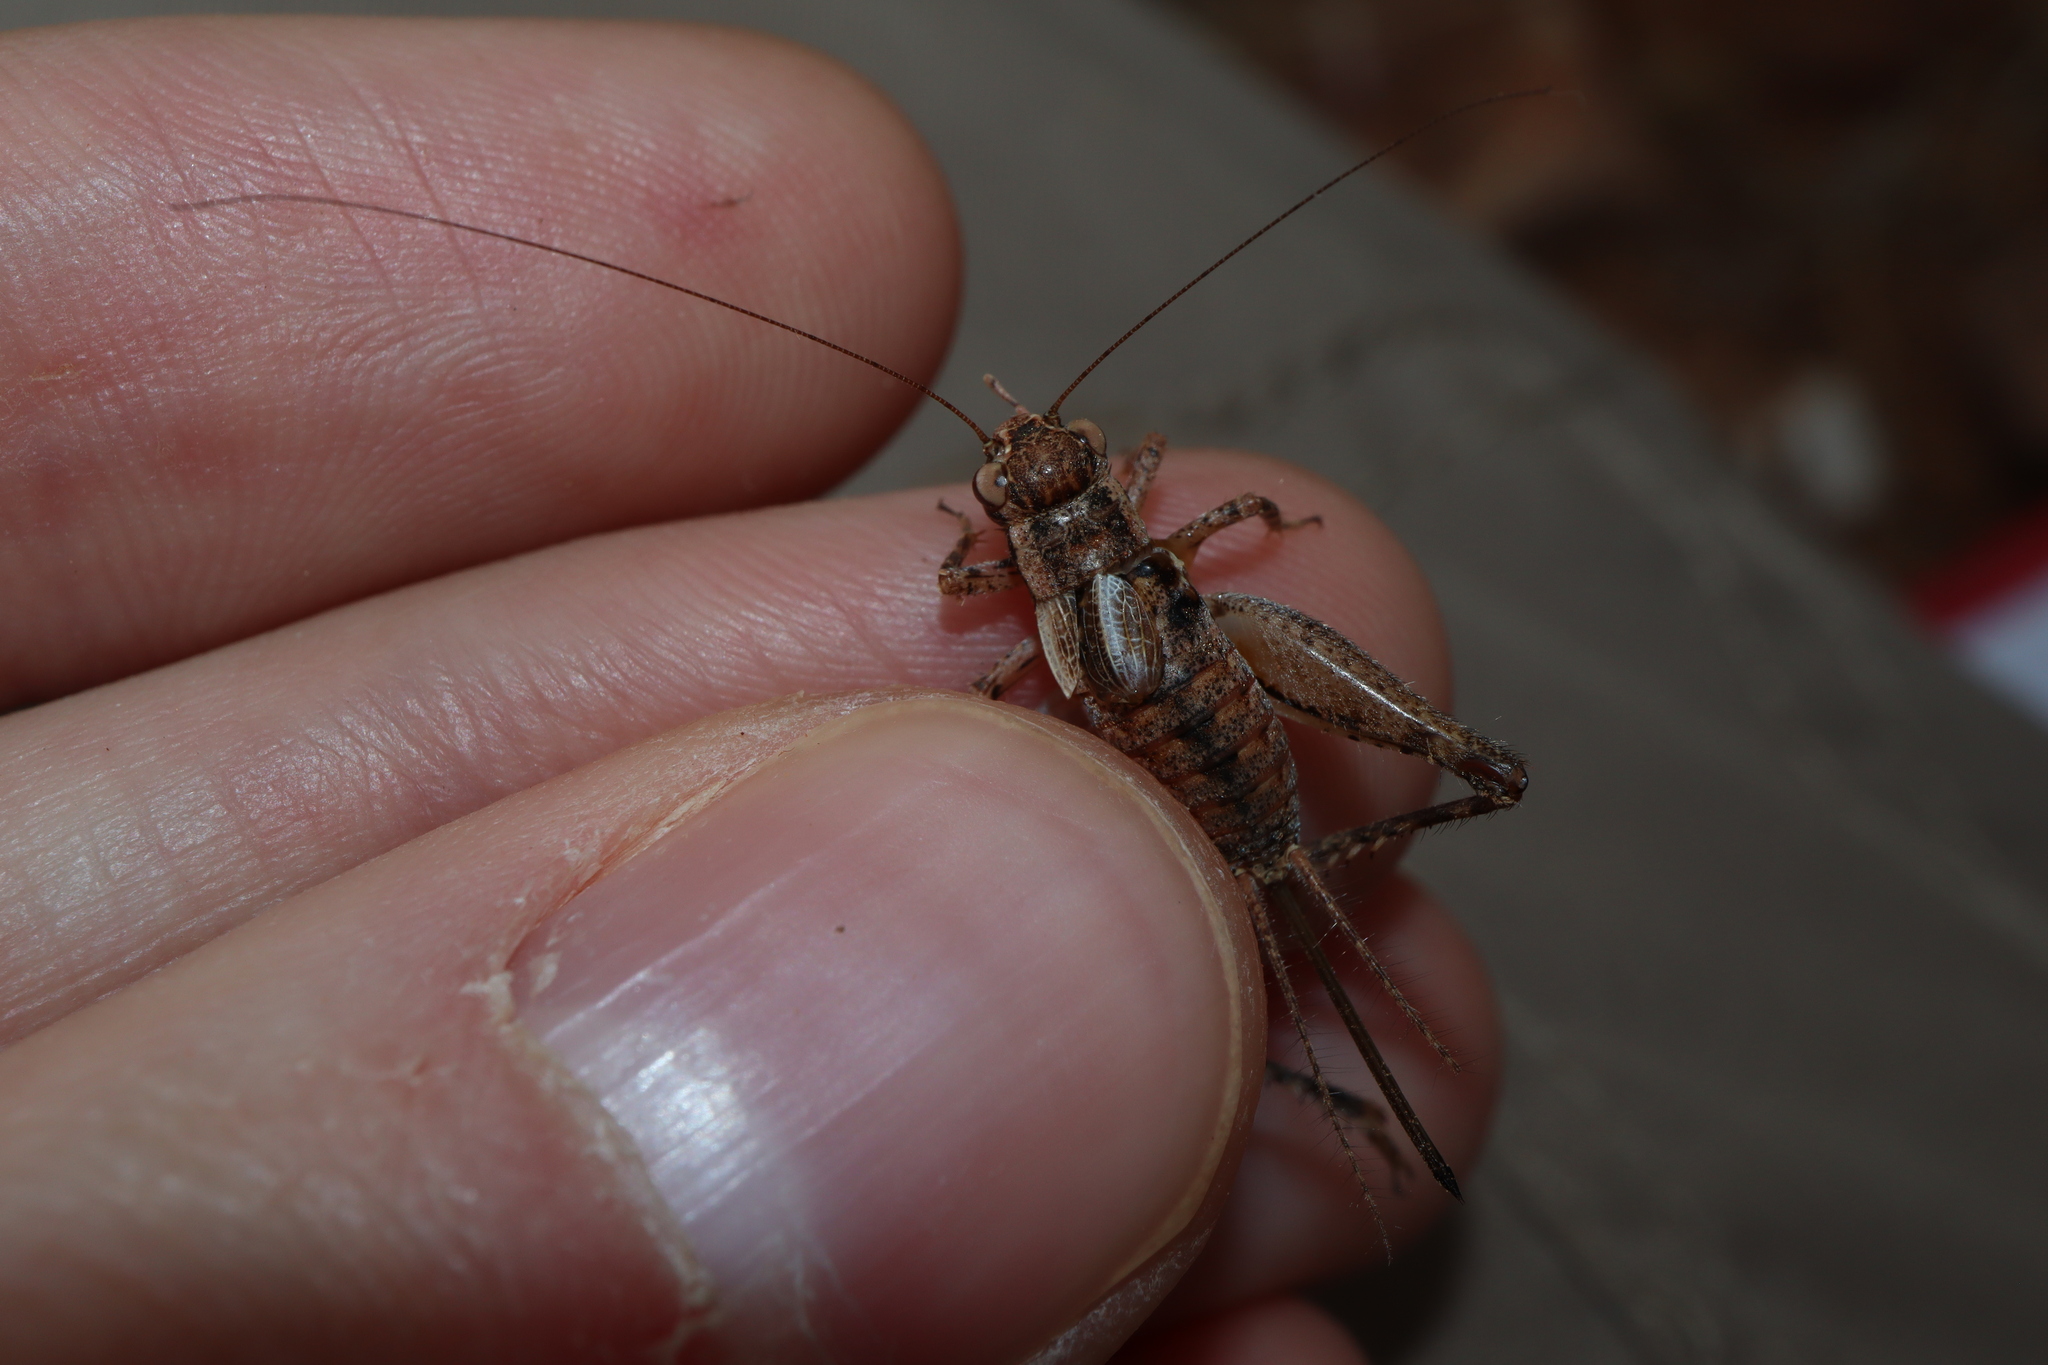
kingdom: Animalia
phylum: Arthropoda
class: Insecta
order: Orthoptera
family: Gryllidae
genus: Eurepella
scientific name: Eurepella ballina
